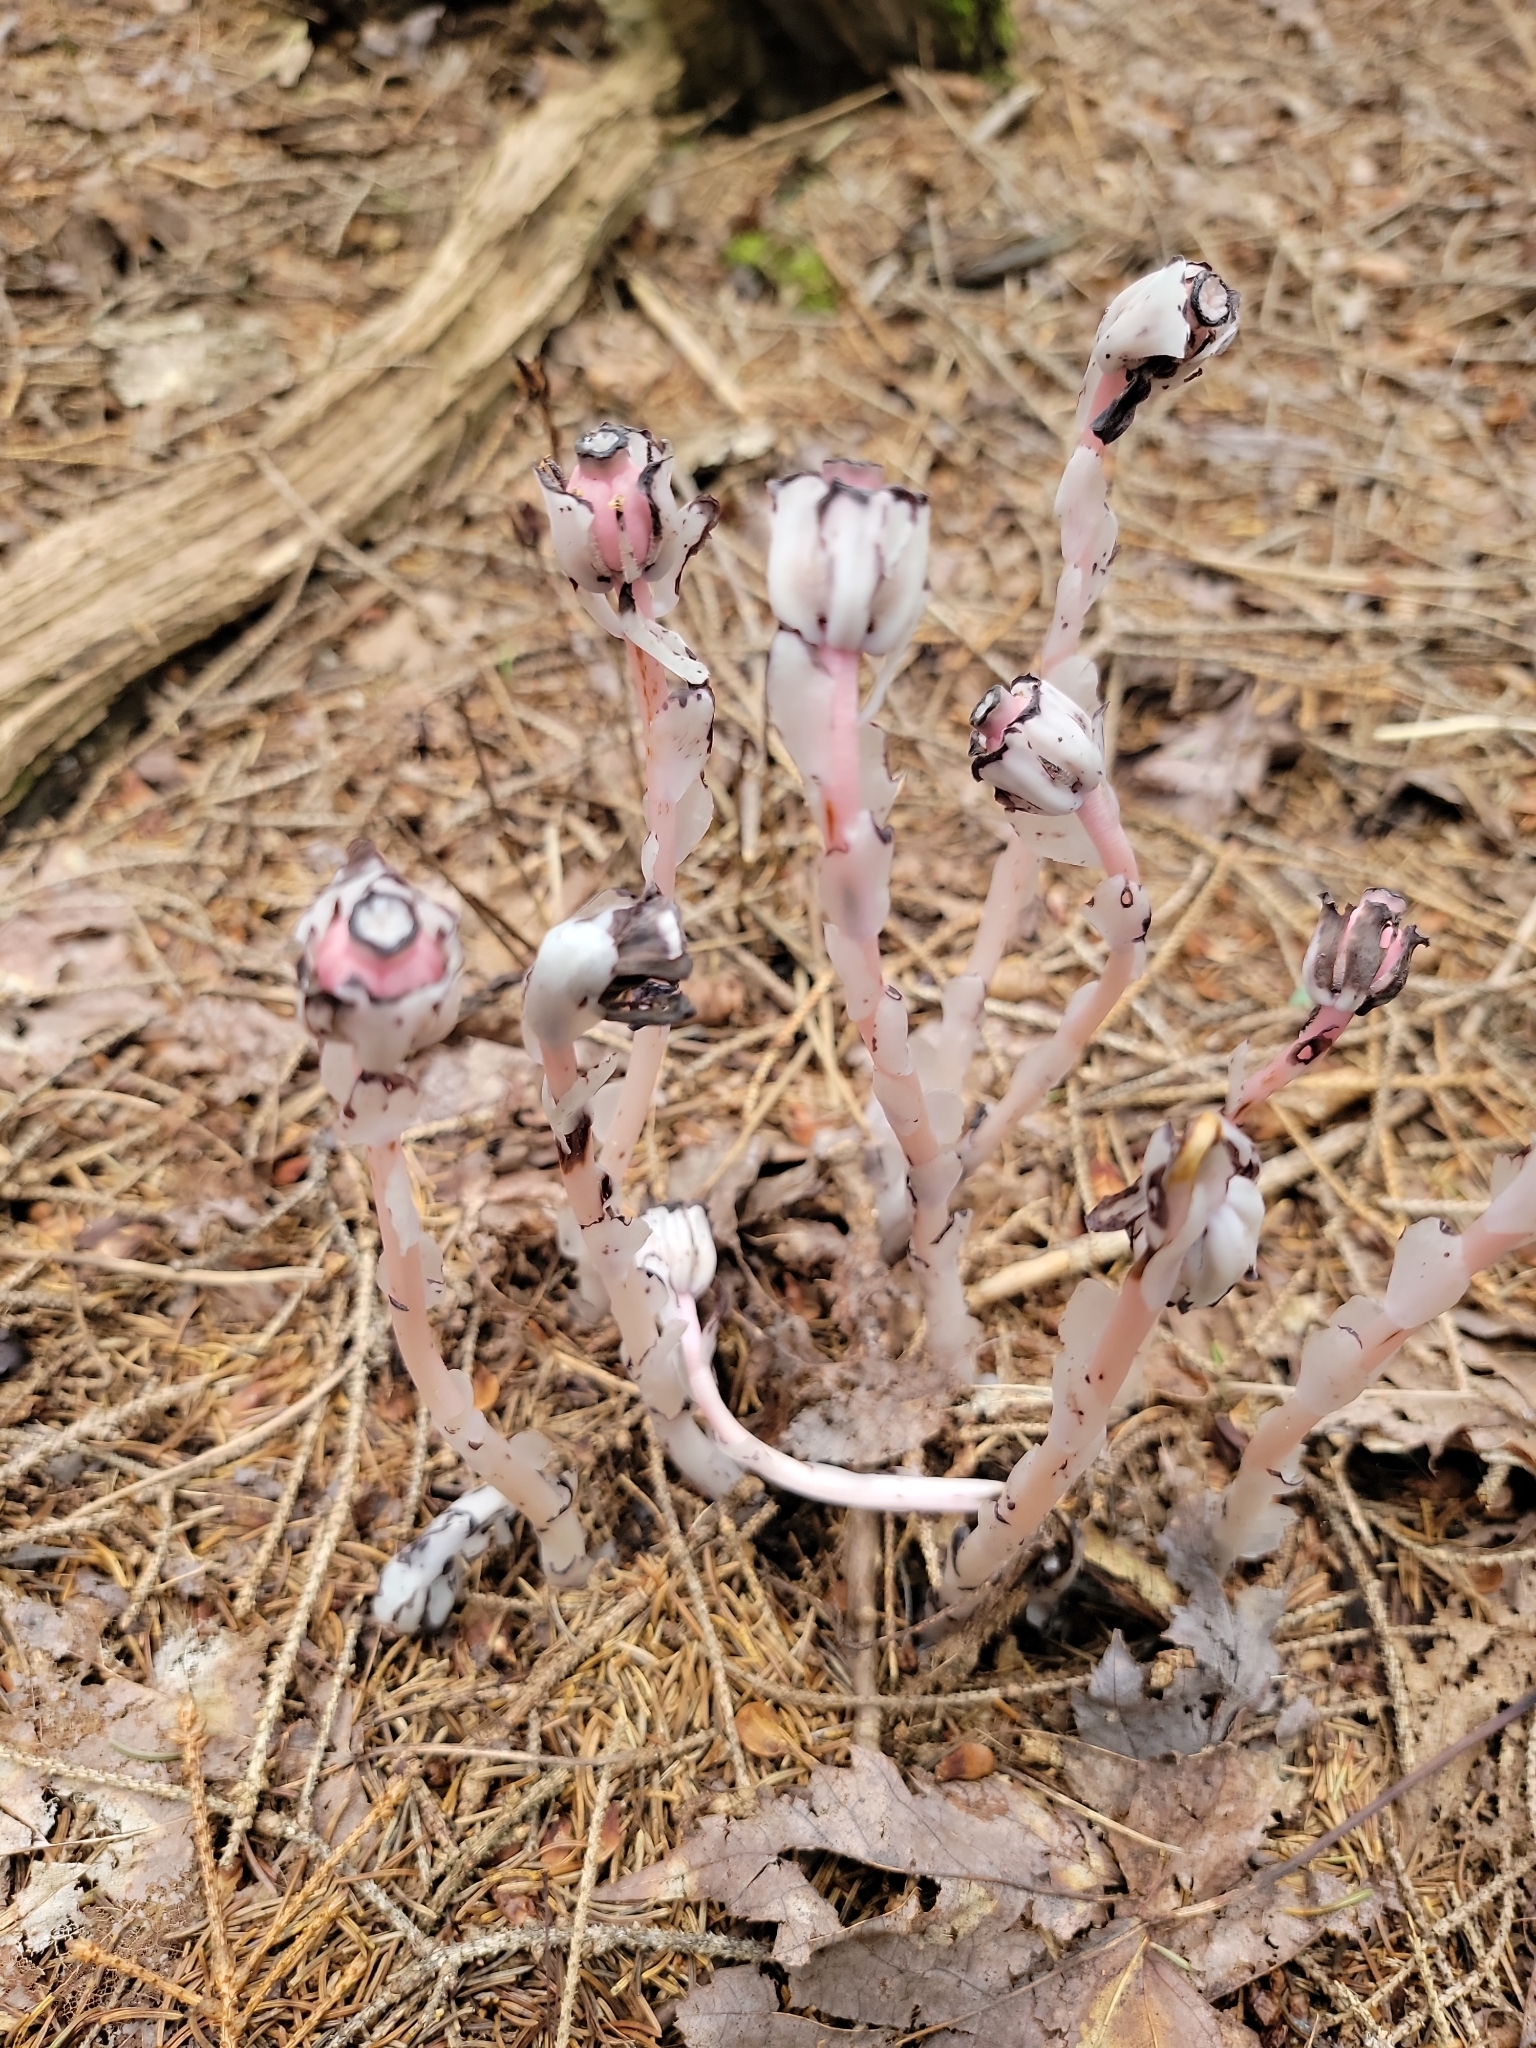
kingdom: Plantae
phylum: Tracheophyta
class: Magnoliopsida
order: Ericales
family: Ericaceae
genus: Monotropa
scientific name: Monotropa uniflora
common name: Convulsion root
